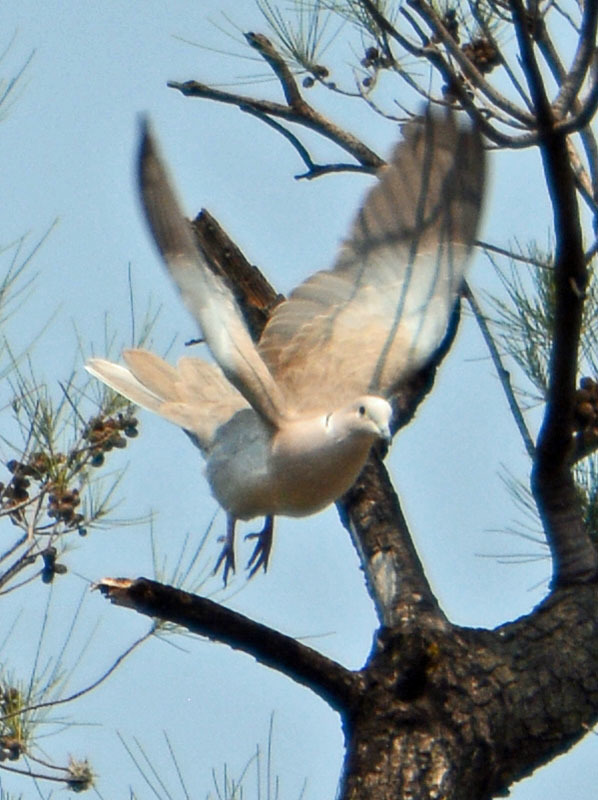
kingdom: Animalia
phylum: Chordata
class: Aves
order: Columbiformes
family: Columbidae
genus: Streptopelia
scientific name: Streptopelia decaocto
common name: Eurasian collared dove
